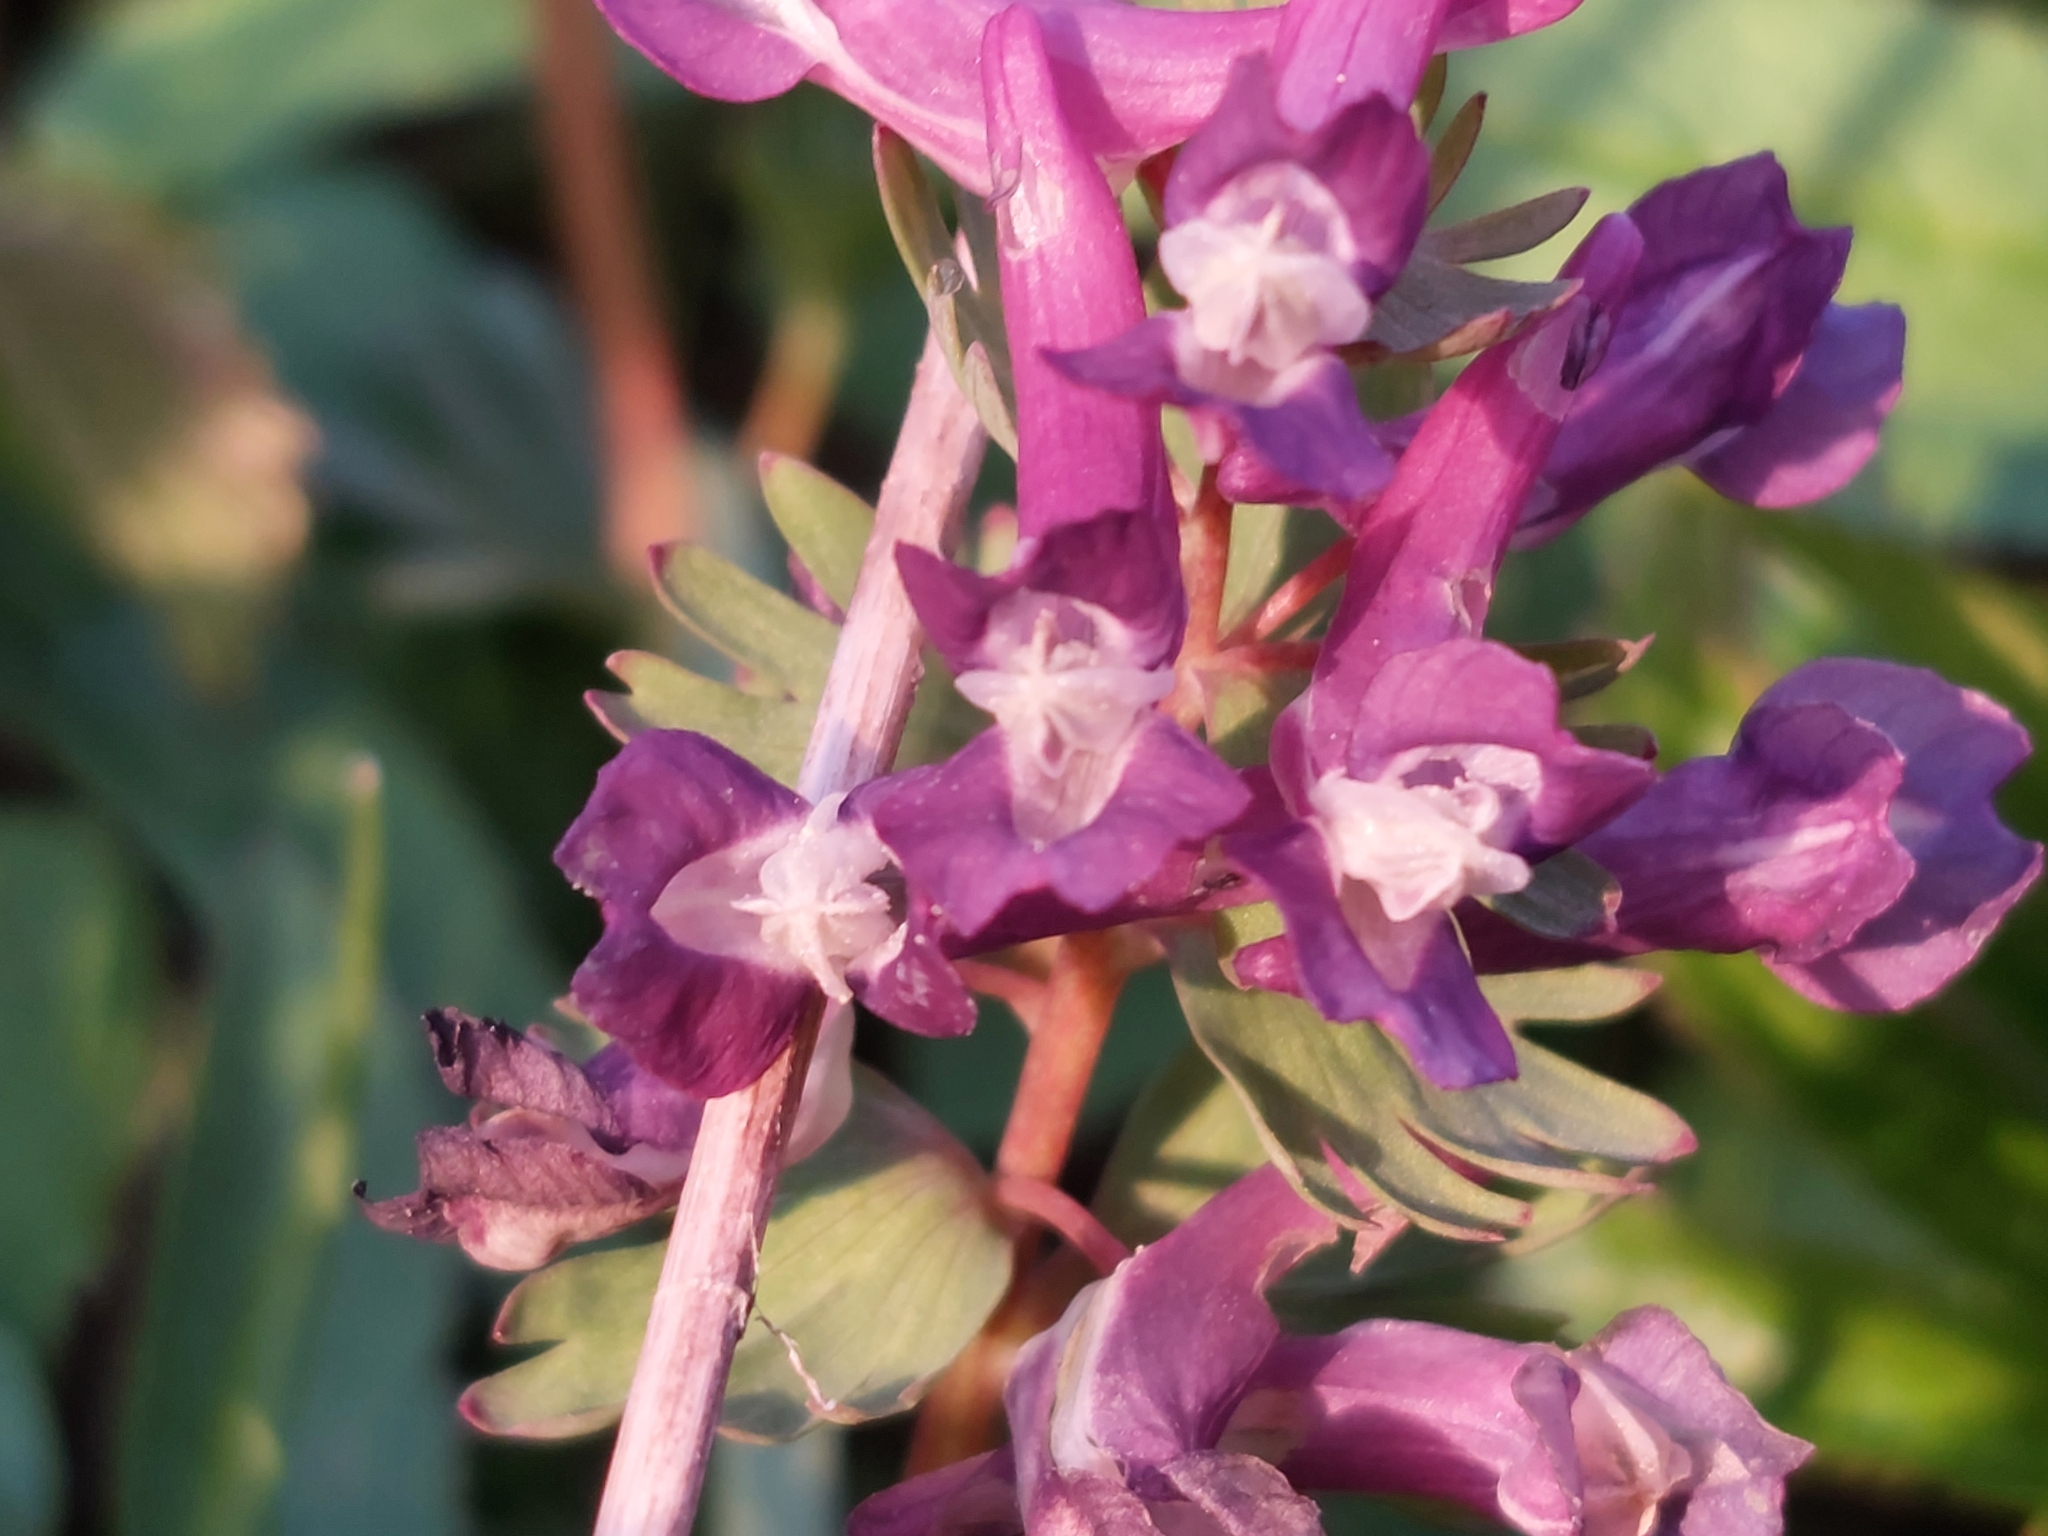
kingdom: Plantae
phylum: Tracheophyta
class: Magnoliopsida
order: Ranunculales
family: Papaveraceae
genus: Corydalis
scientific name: Corydalis solida
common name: Bird-in-a-bush
